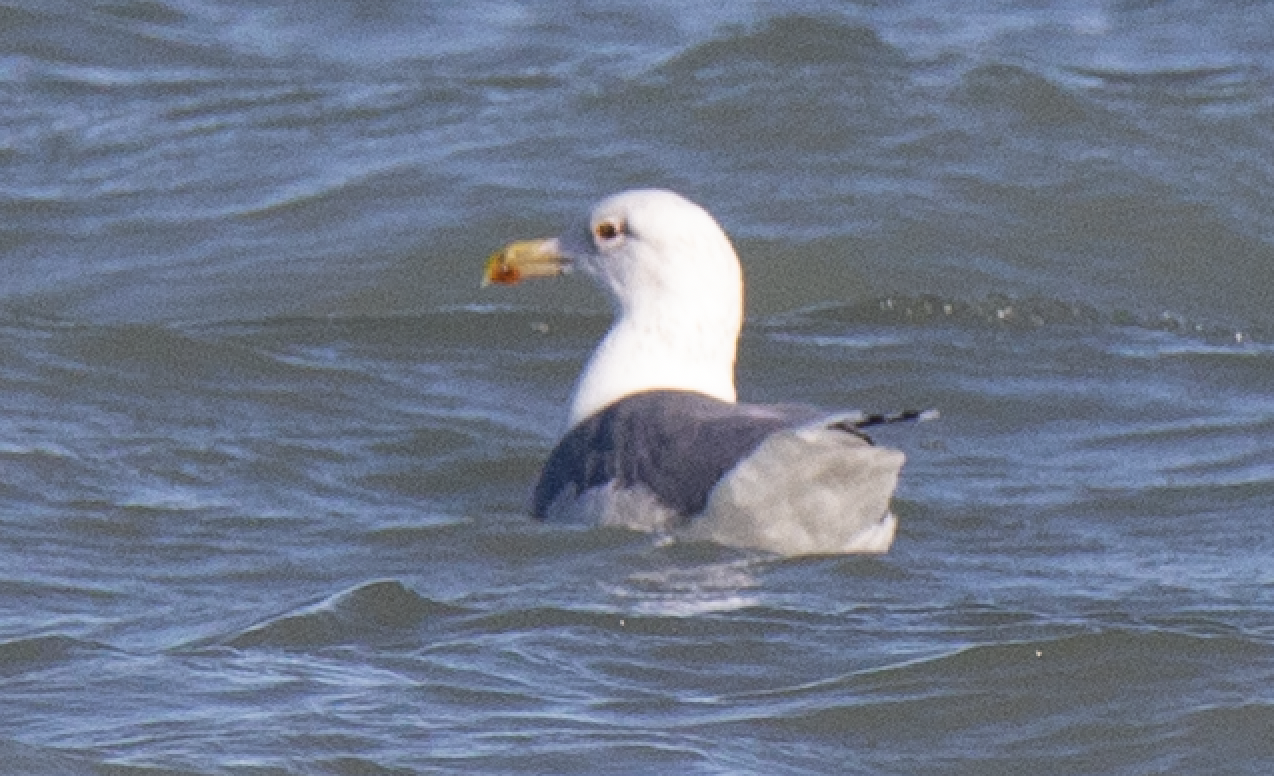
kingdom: Animalia
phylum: Chordata
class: Aves
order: Charadriiformes
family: Laridae
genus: Larus
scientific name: Larus cachinnans
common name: Caspian gull
